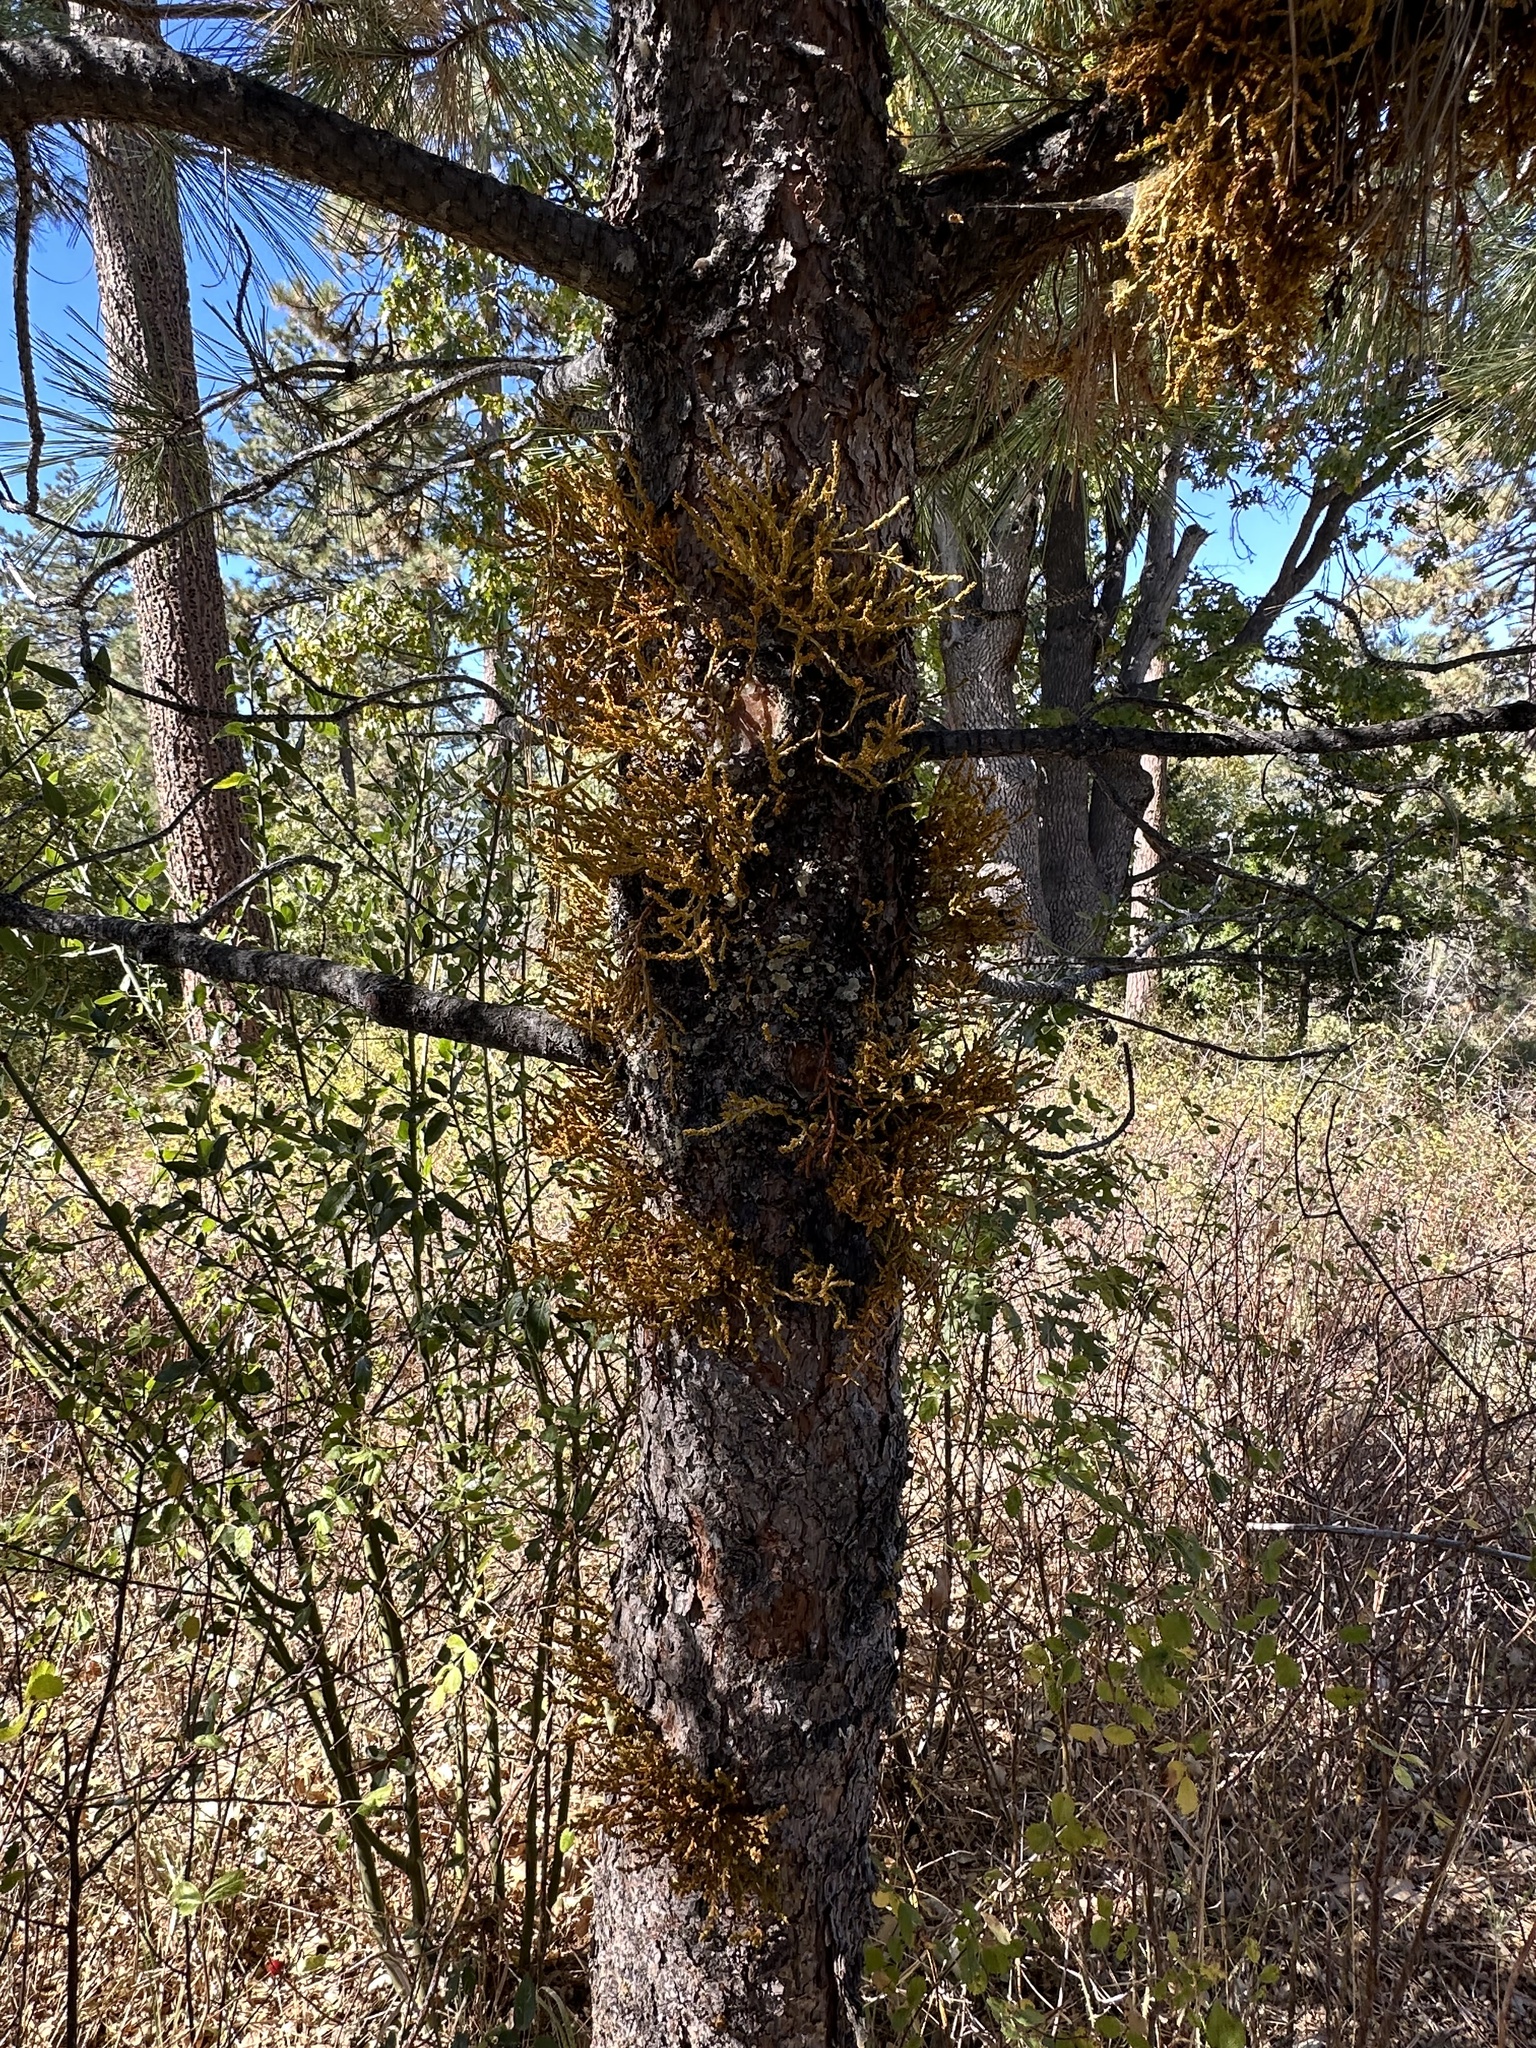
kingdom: Plantae
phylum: Tracheophyta
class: Magnoliopsida
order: Santalales
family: Viscaceae
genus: Arceuthobium
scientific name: Arceuthobium campylopodum
